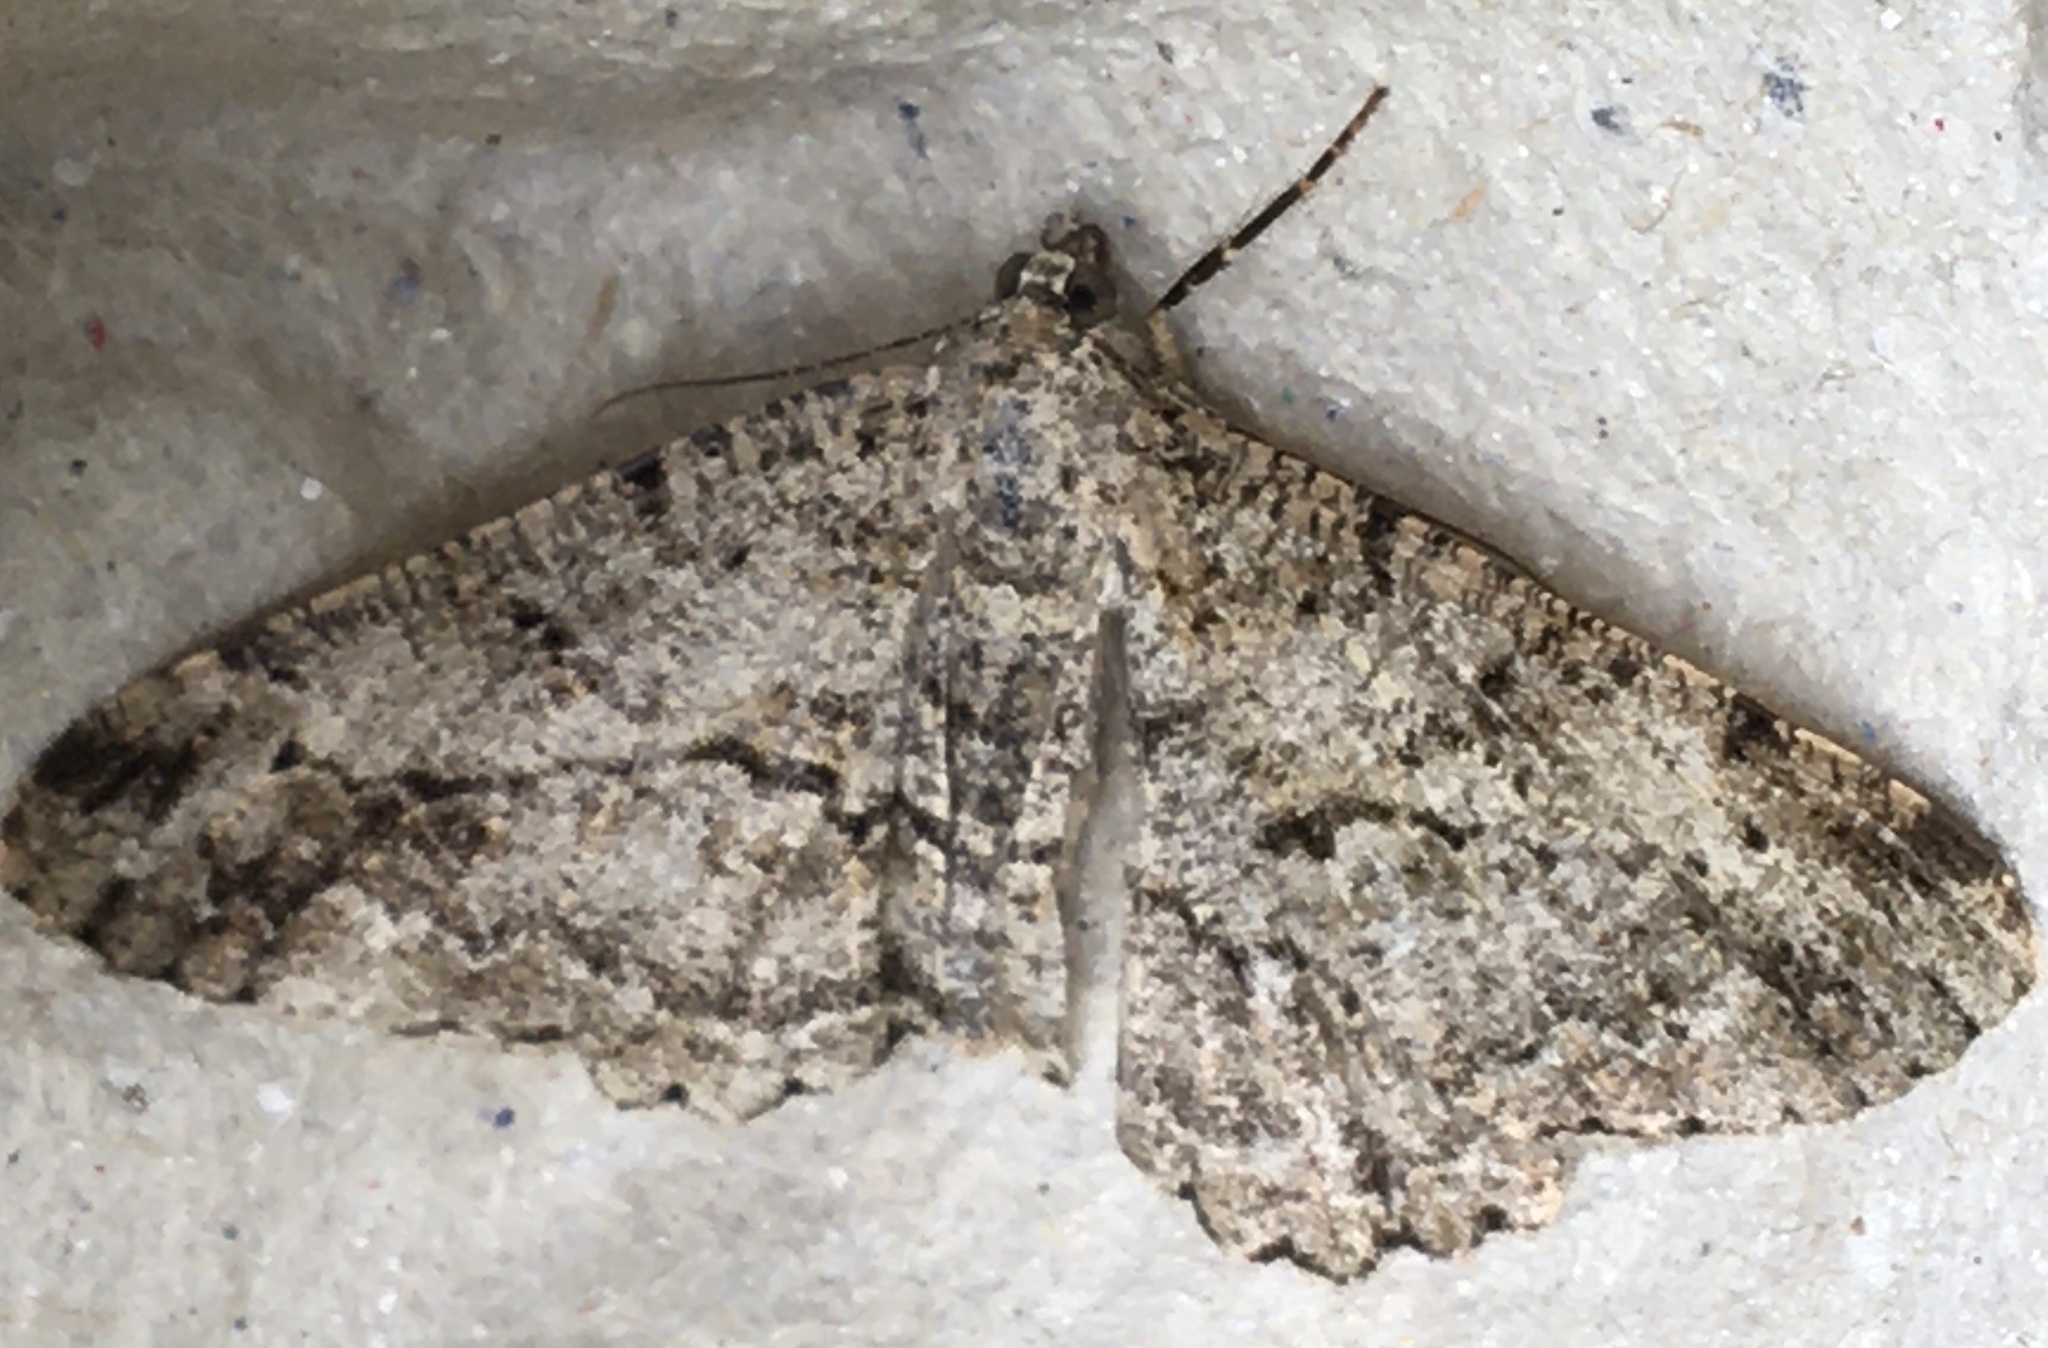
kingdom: Animalia
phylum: Arthropoda
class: Insecta
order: Lepidoptera
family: Geometridae
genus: Peribatodes
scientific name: Peribatodes rhomboidaria
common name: Willow beauty
